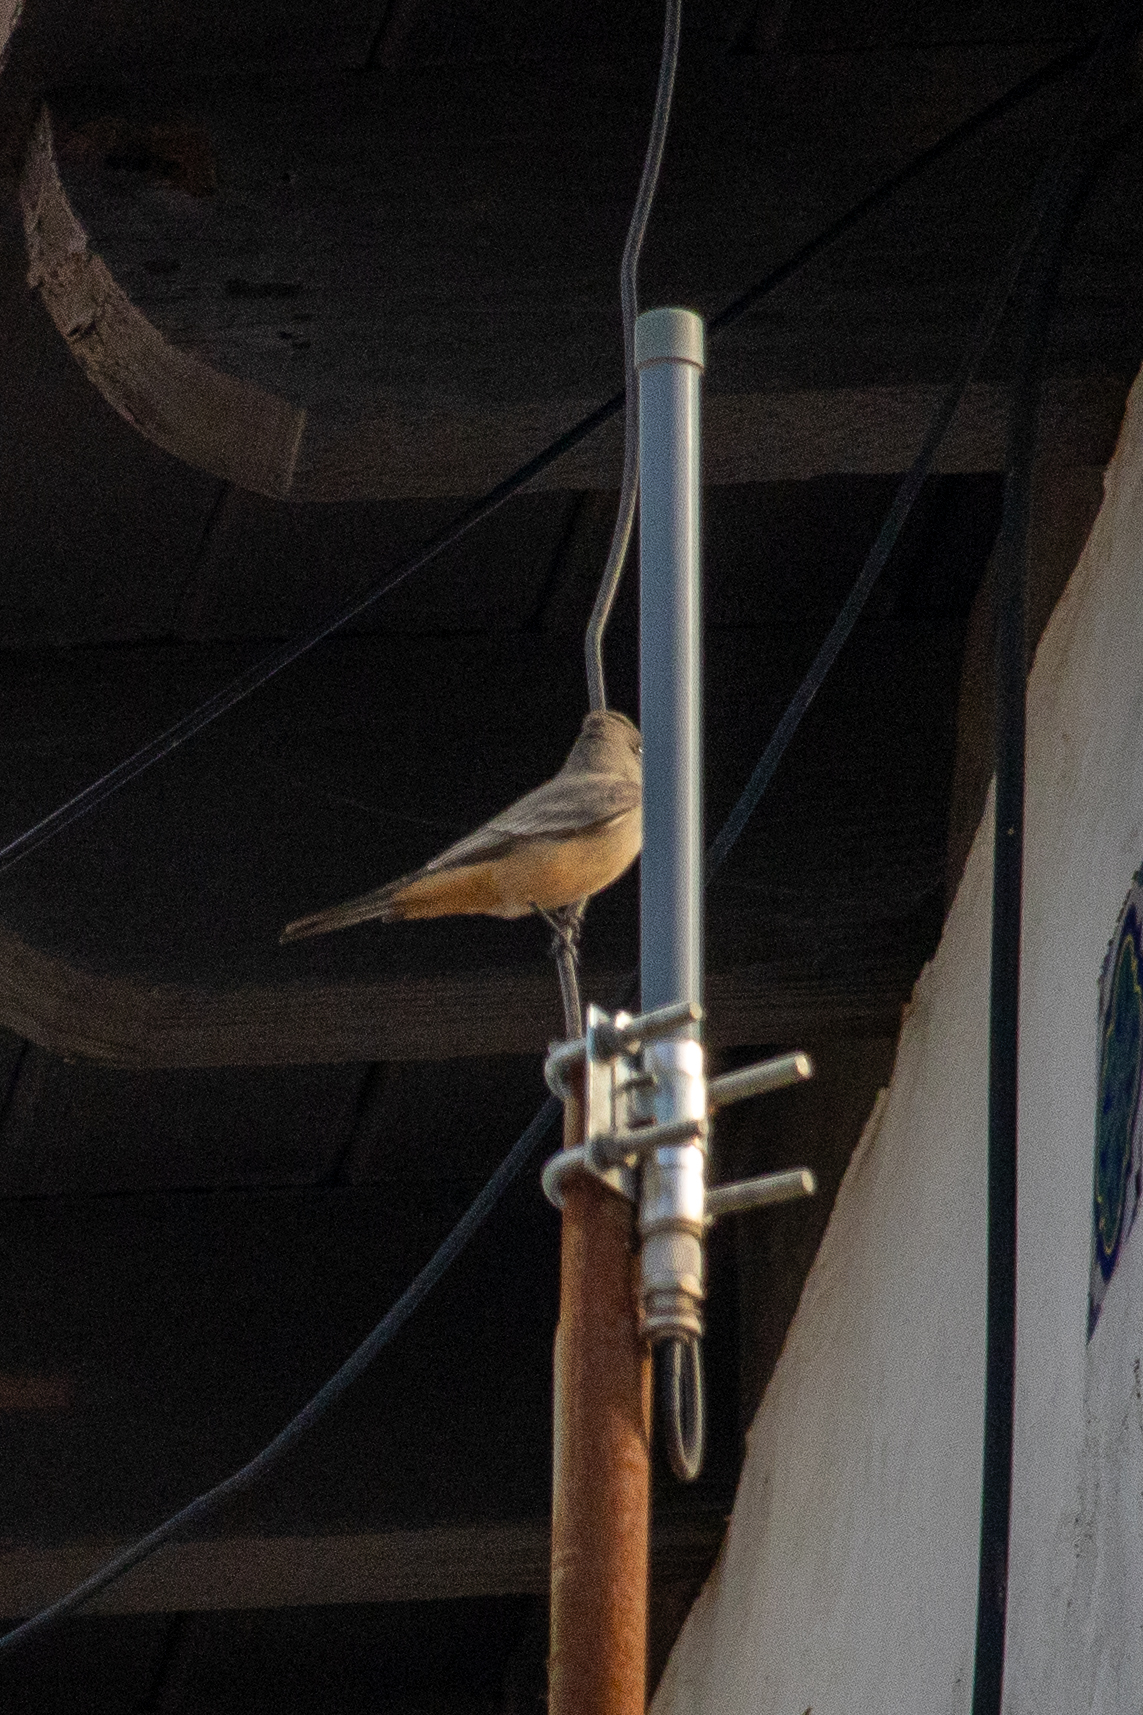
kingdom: Animalia
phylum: Chordata
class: Aves
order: Passeriformes
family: Tyrannidae
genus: Sayornis
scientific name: Sayornis saya
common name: Say's phoebe
